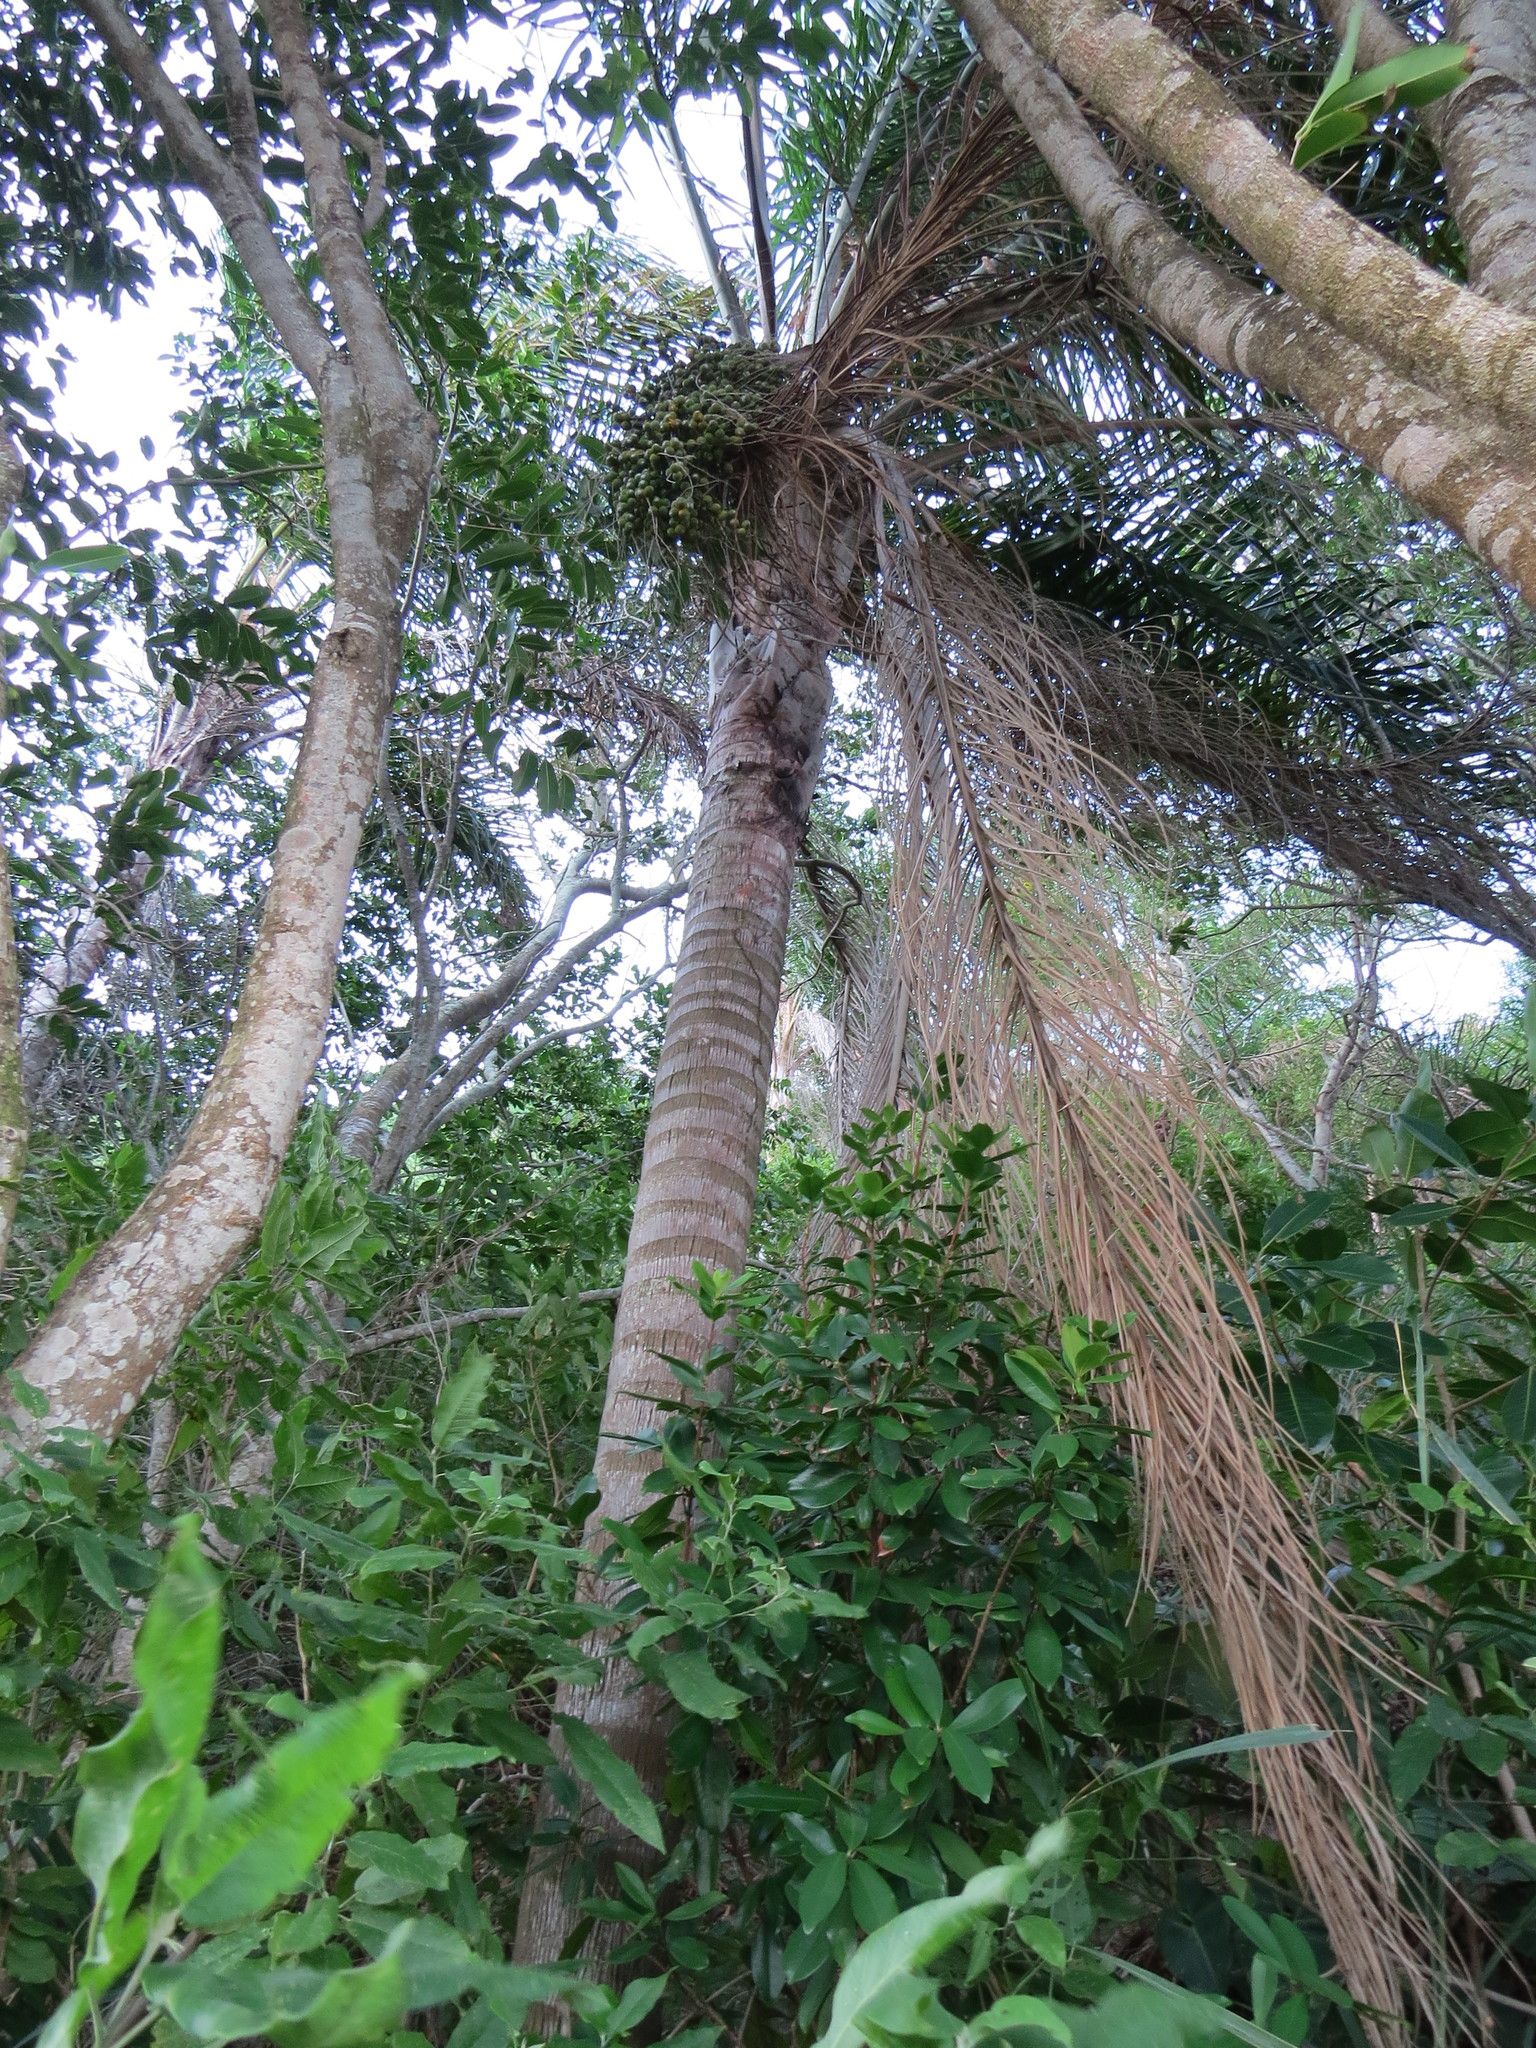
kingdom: Plantae
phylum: Tracheophyta
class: Liliopsida
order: Arecales
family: Arecaceae
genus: Syagrus
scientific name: Syagrus romanzoffiana
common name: Queen palm
